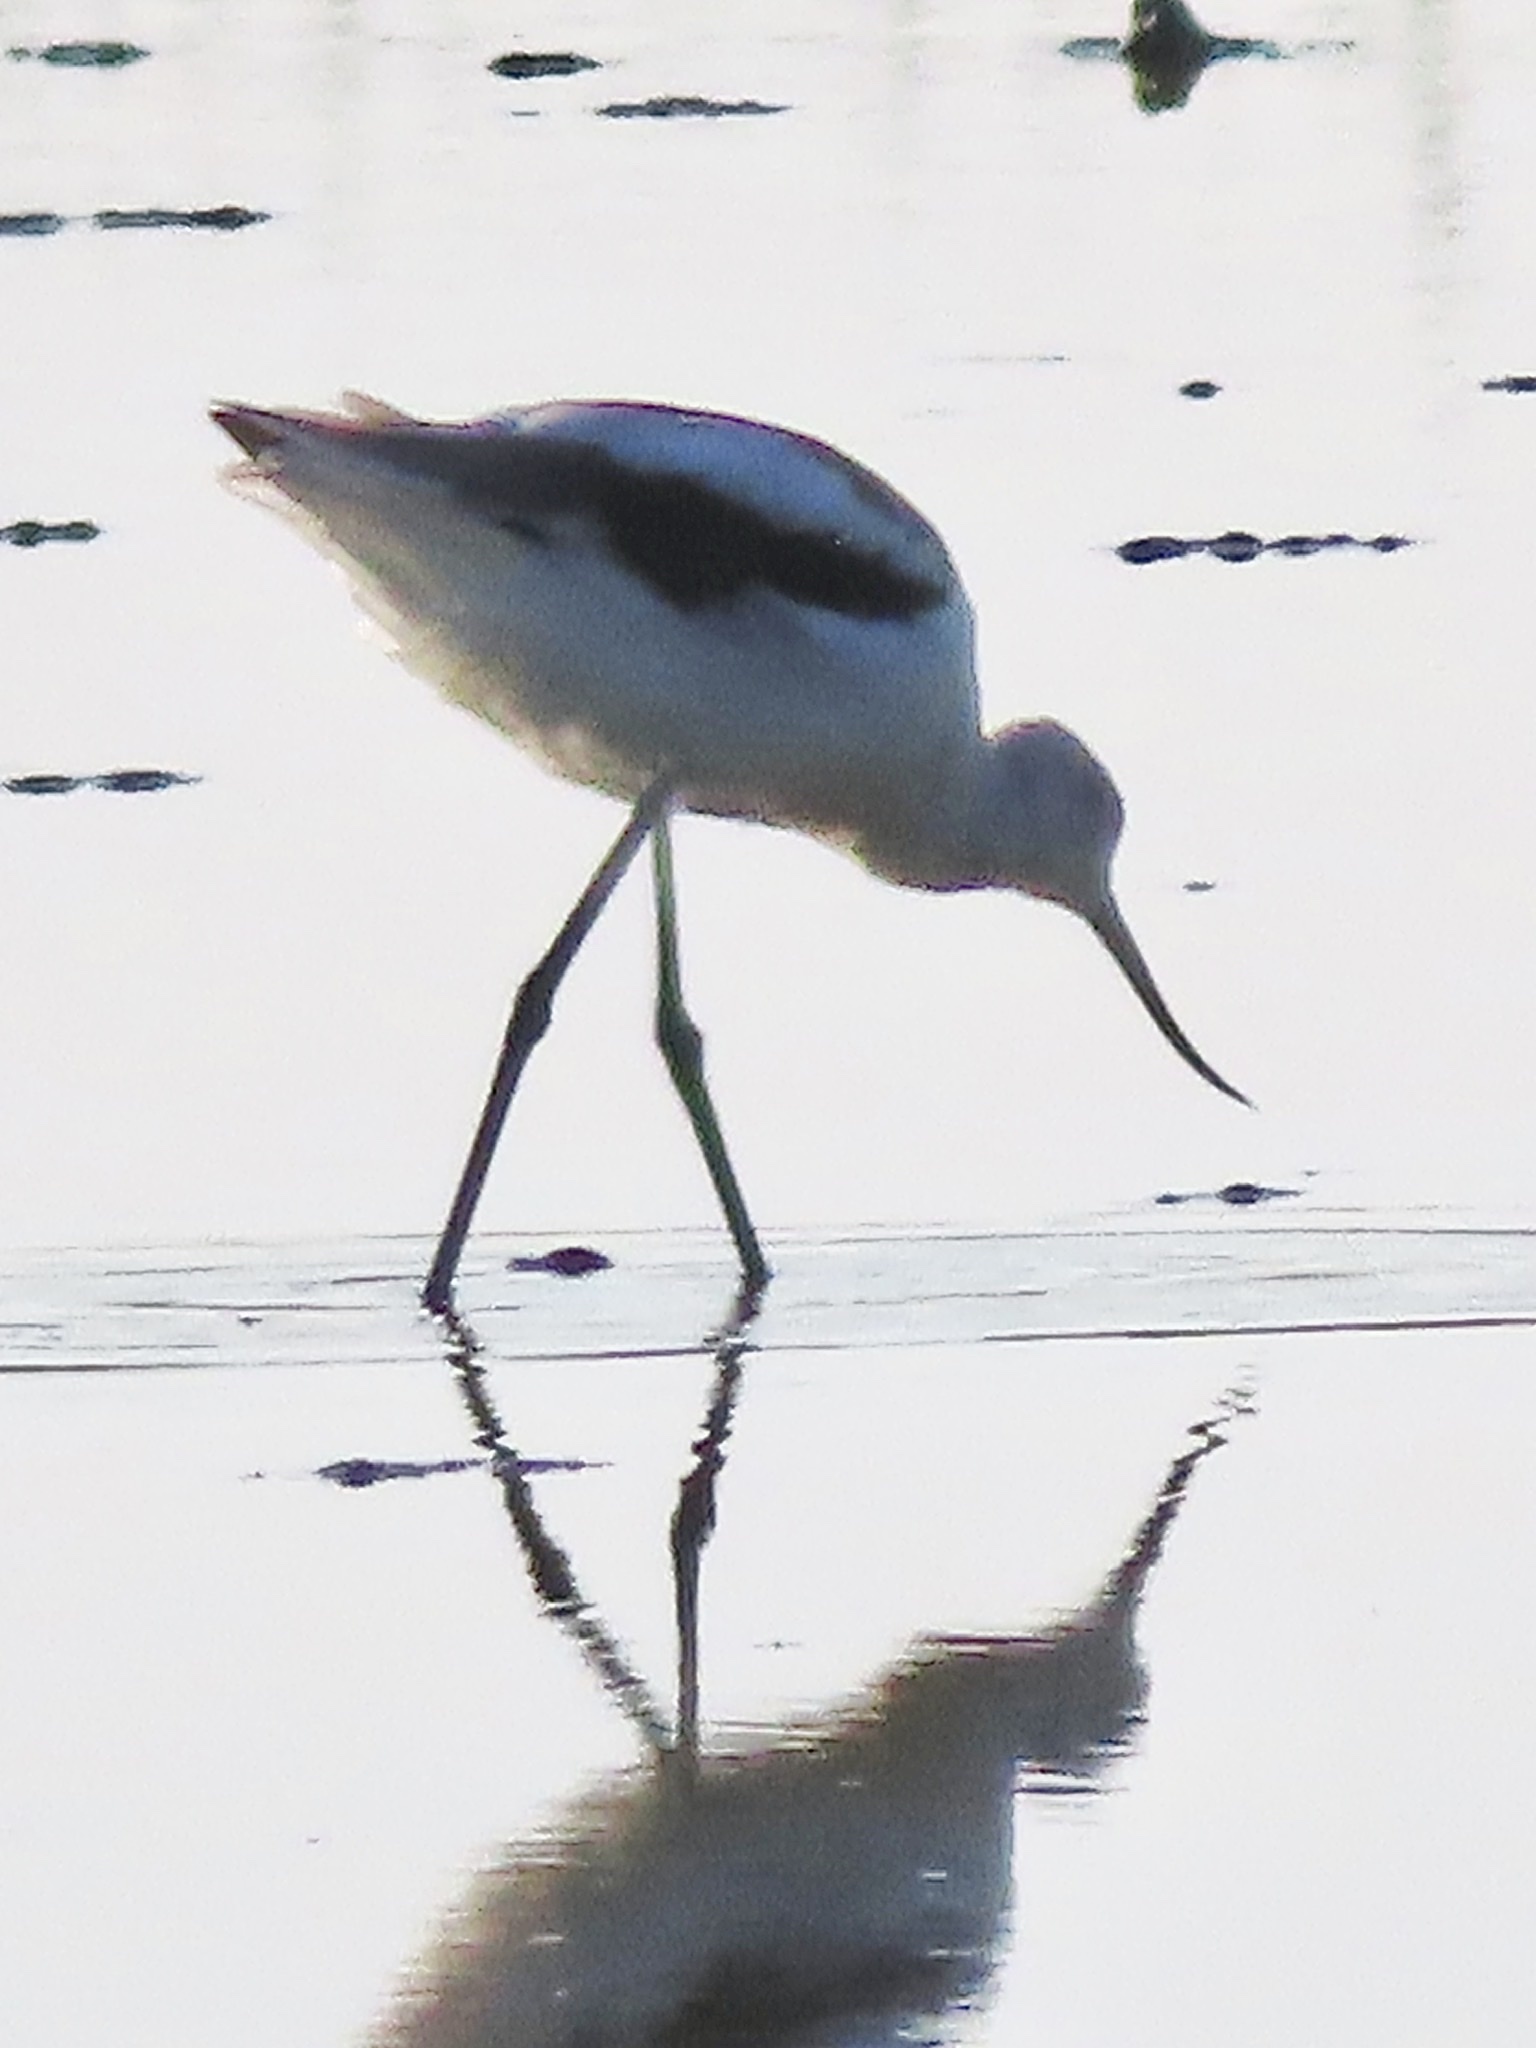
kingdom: Animalia
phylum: Chordata
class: Aves
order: Charadriiformes
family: Recurvirostridae
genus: Recurvirostra
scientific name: Recurvirostra americana
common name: American avocet
